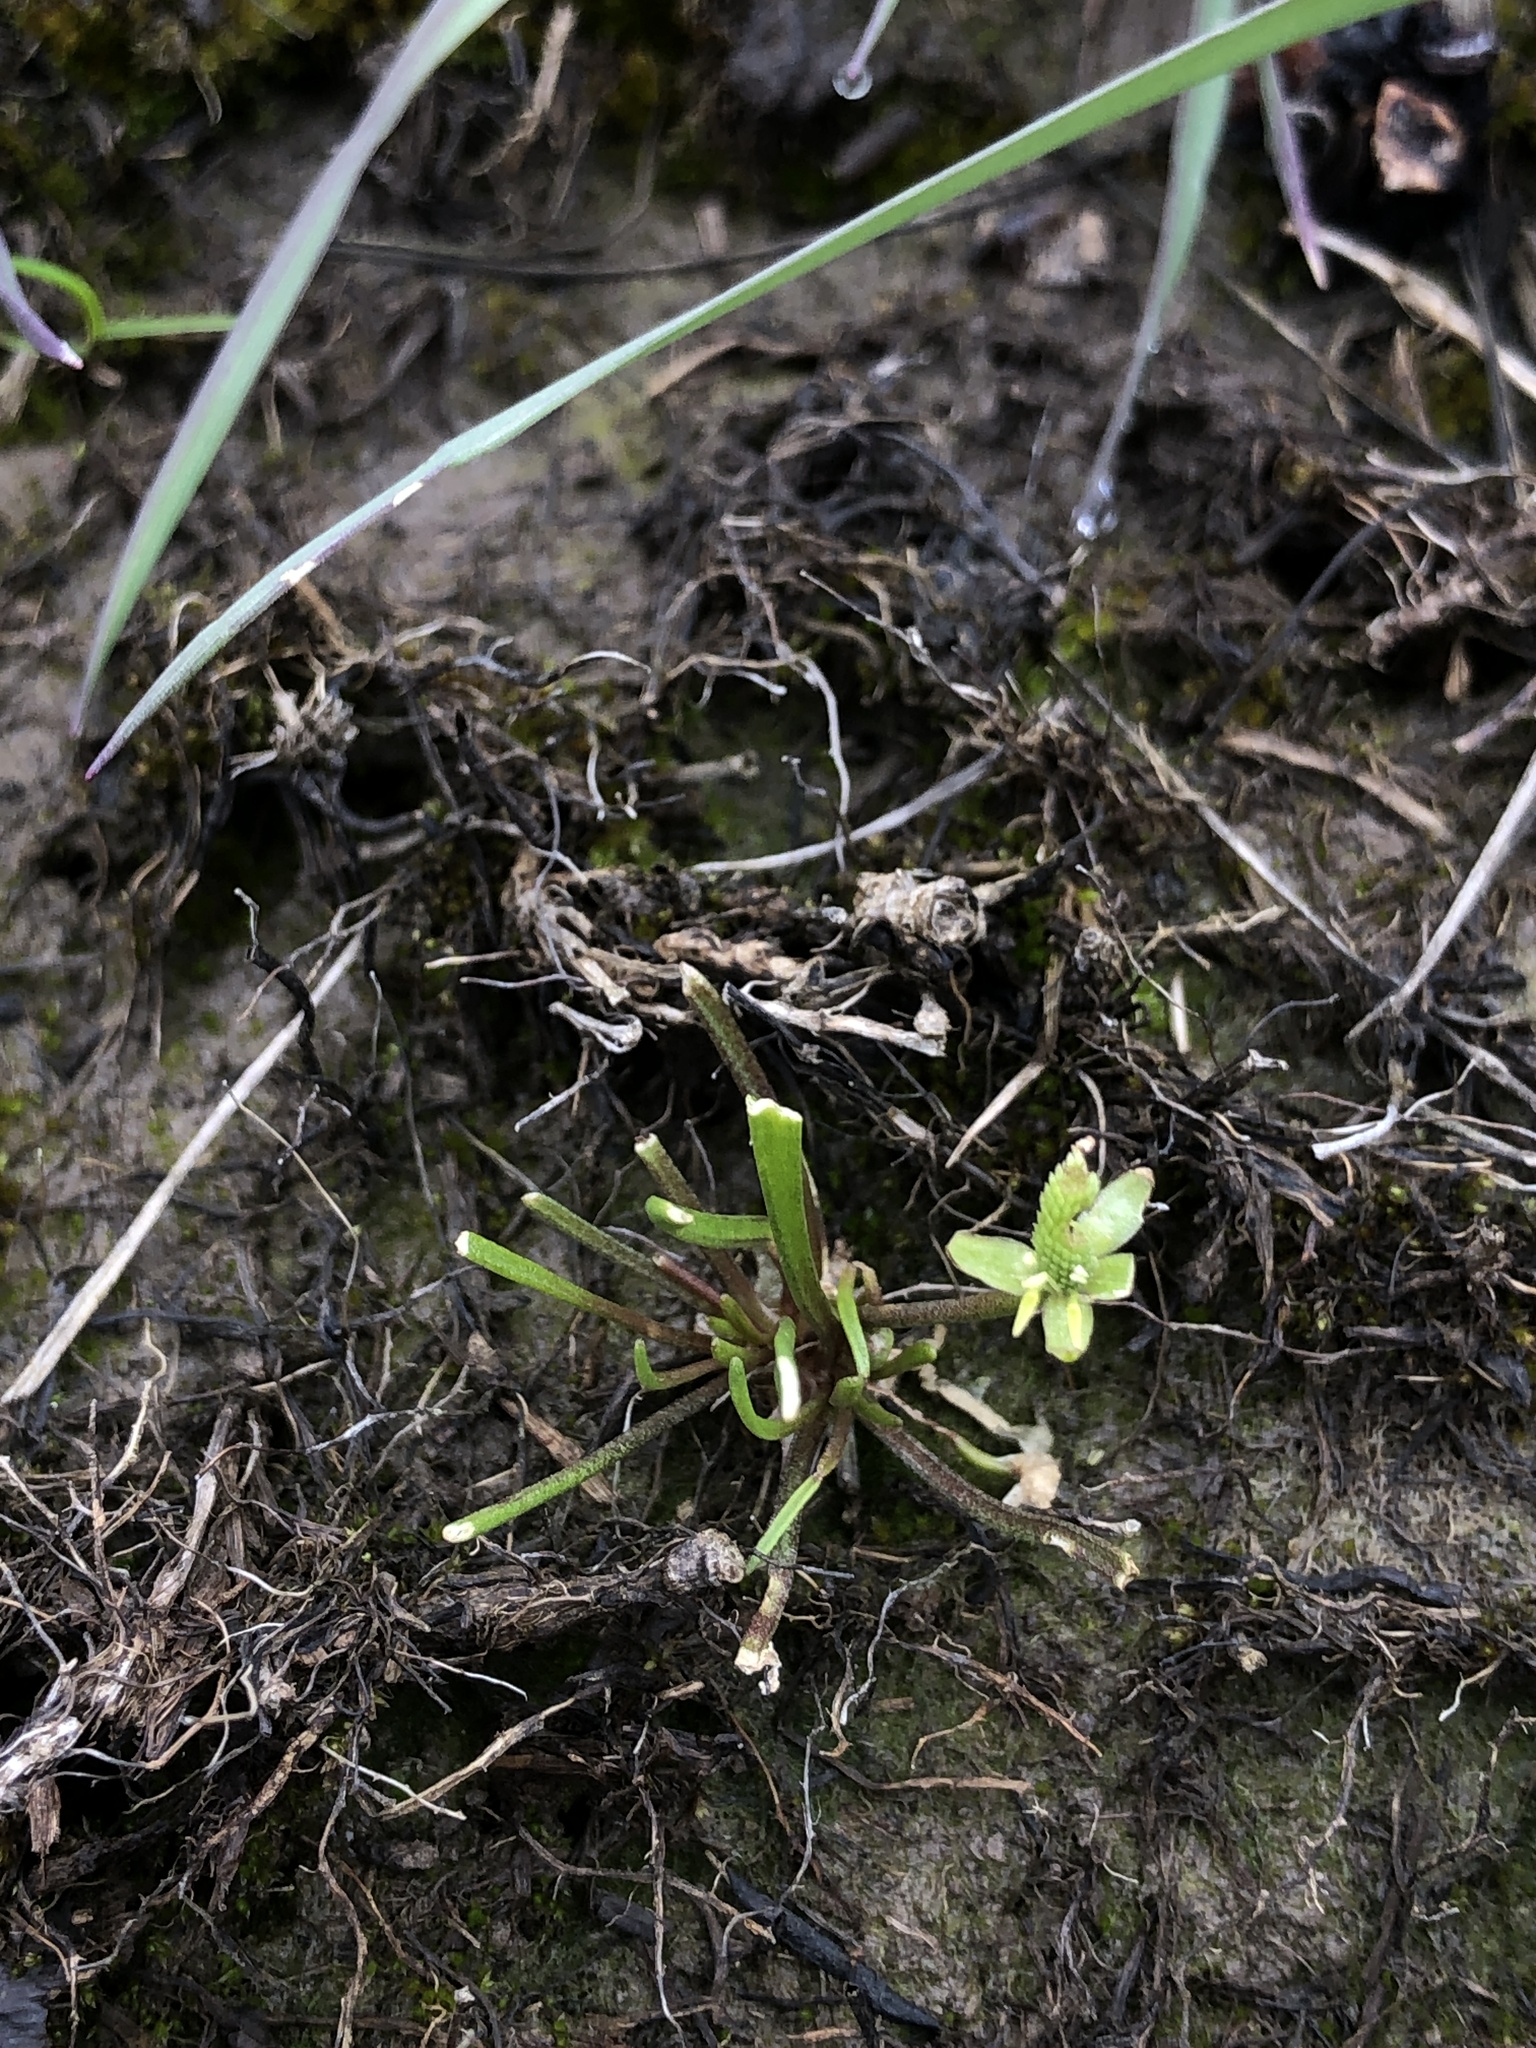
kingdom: Plantae
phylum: Tracheophyta
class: Magnoliopsida
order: Ranunculales
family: Ranunculaceae
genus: Myosurus
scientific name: Myosurus minimus
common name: Mousetail
